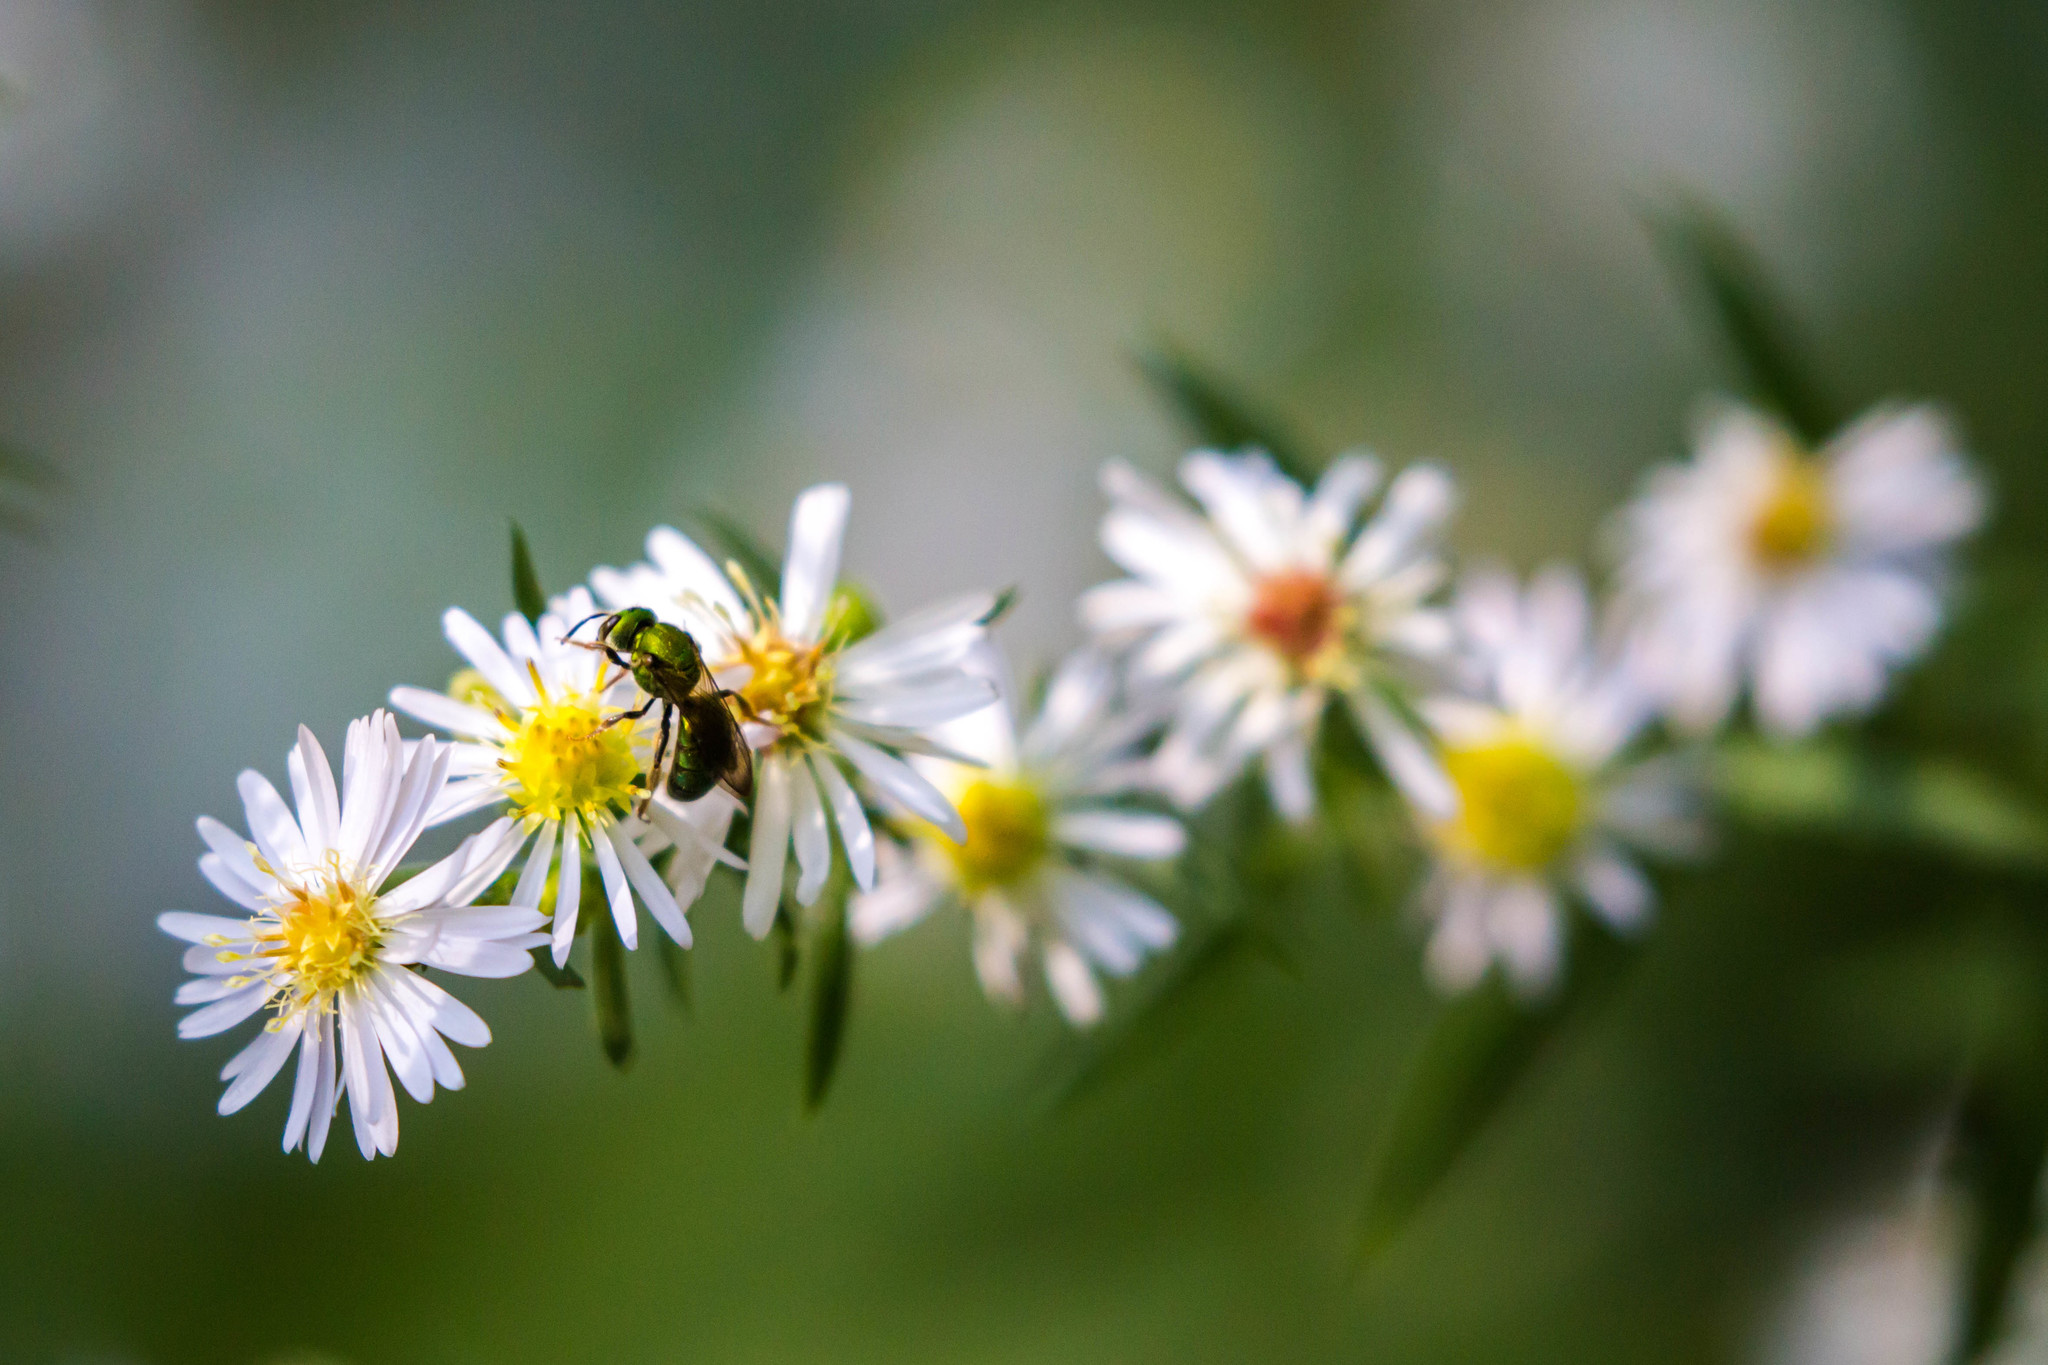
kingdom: Animalia
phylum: Arthropoda
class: Insecta
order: Hymenoptera
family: Halictidae
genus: Augochlora
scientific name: Augochlora pura
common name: Pure green sweat bee
